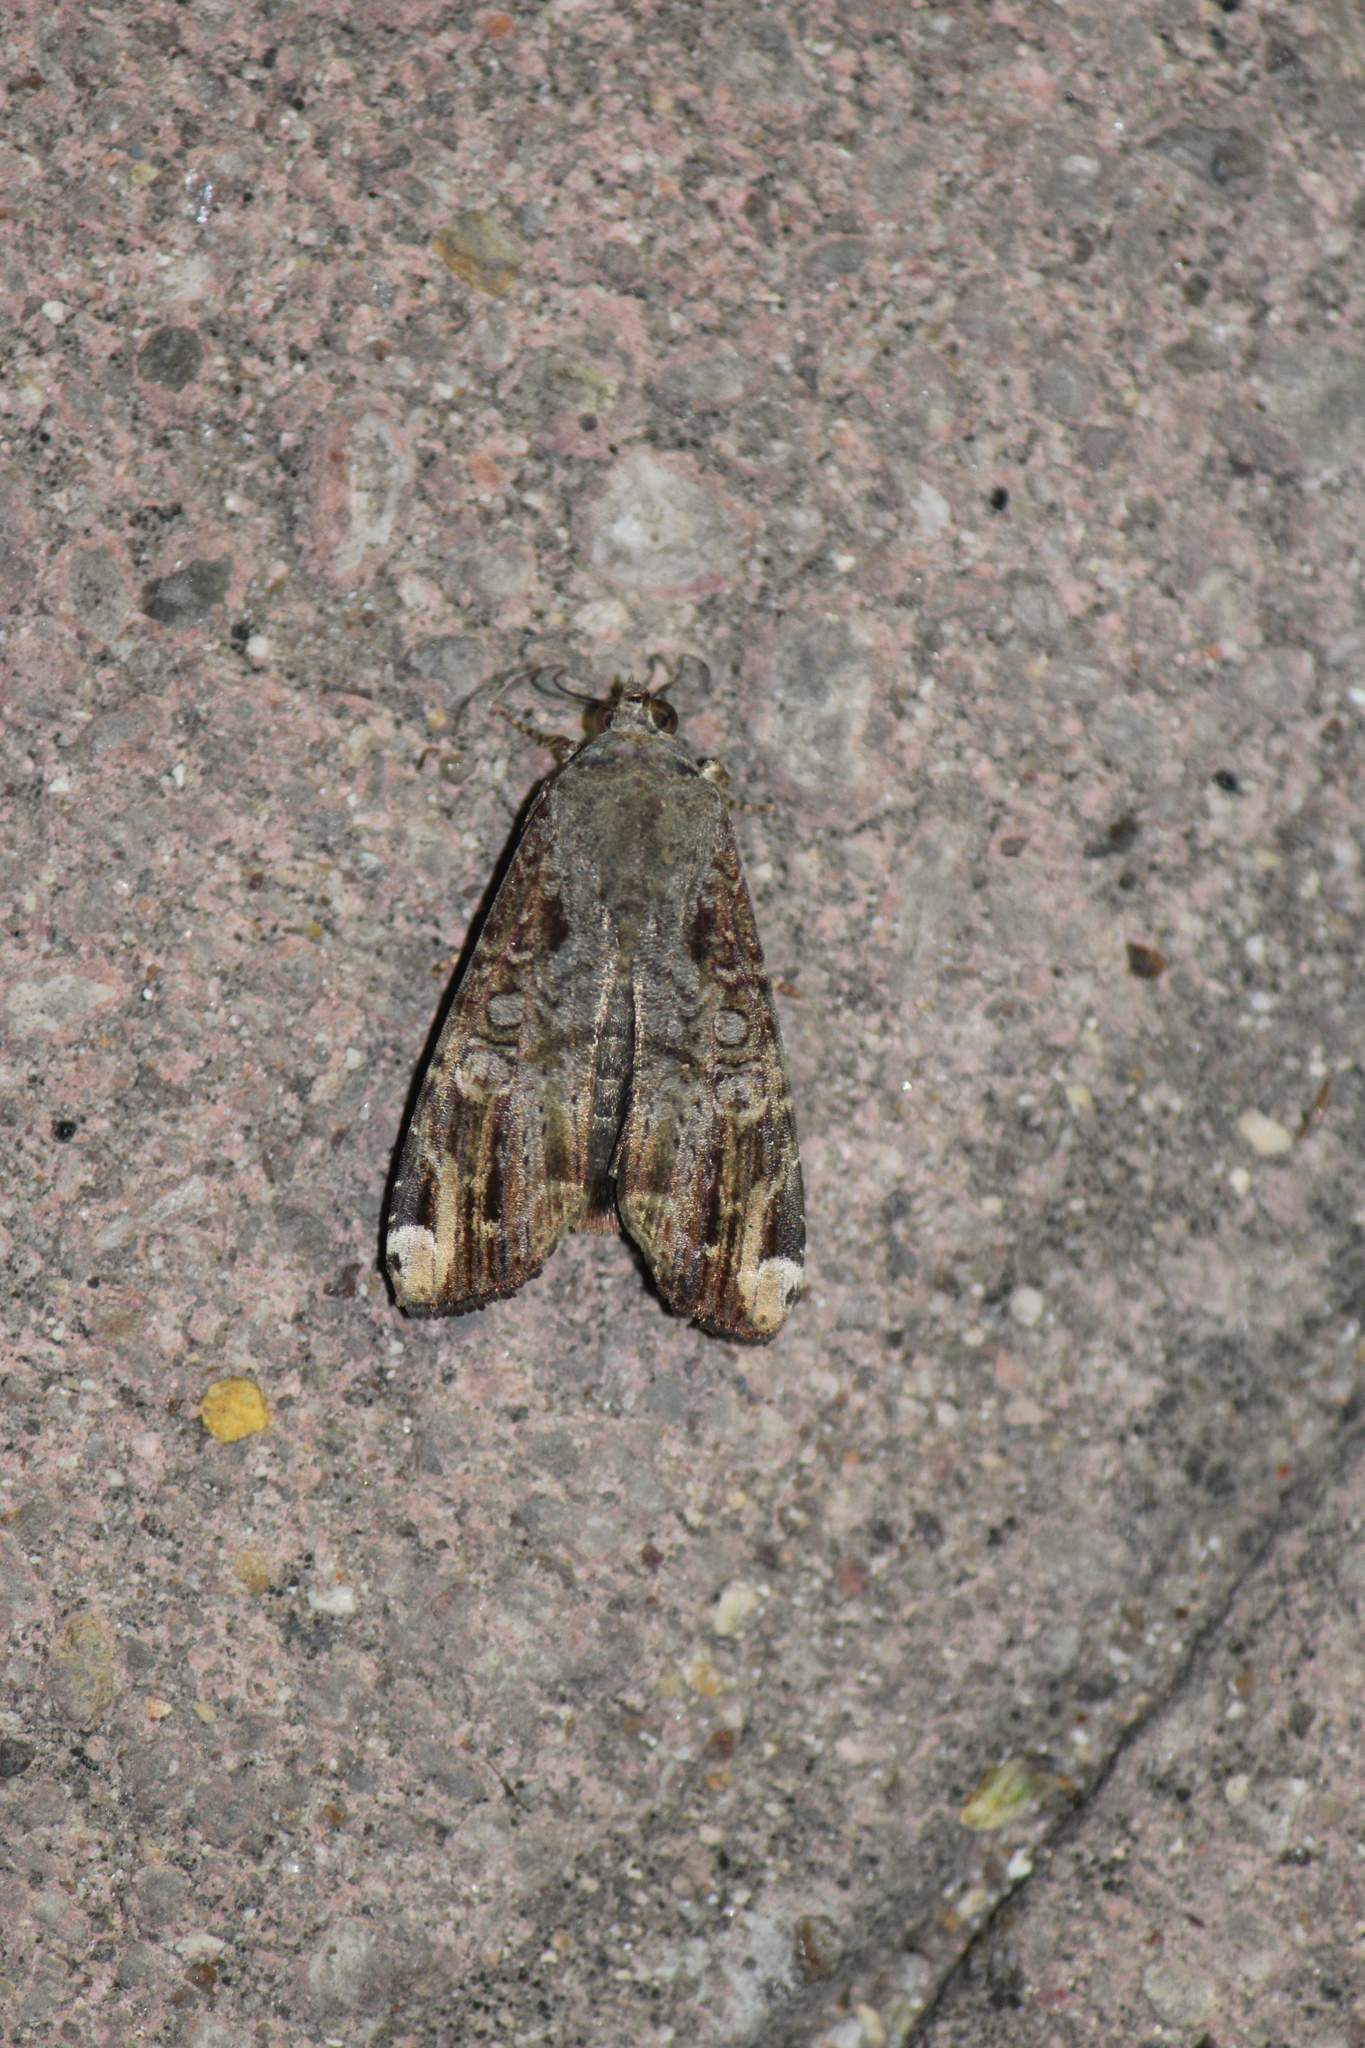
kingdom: Animalia
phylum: Arthropoda
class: Insecta
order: Lepidoptera
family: Noctuidae
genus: Magusa
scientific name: Magusa divaricata
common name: Orb narrow-winged moth
